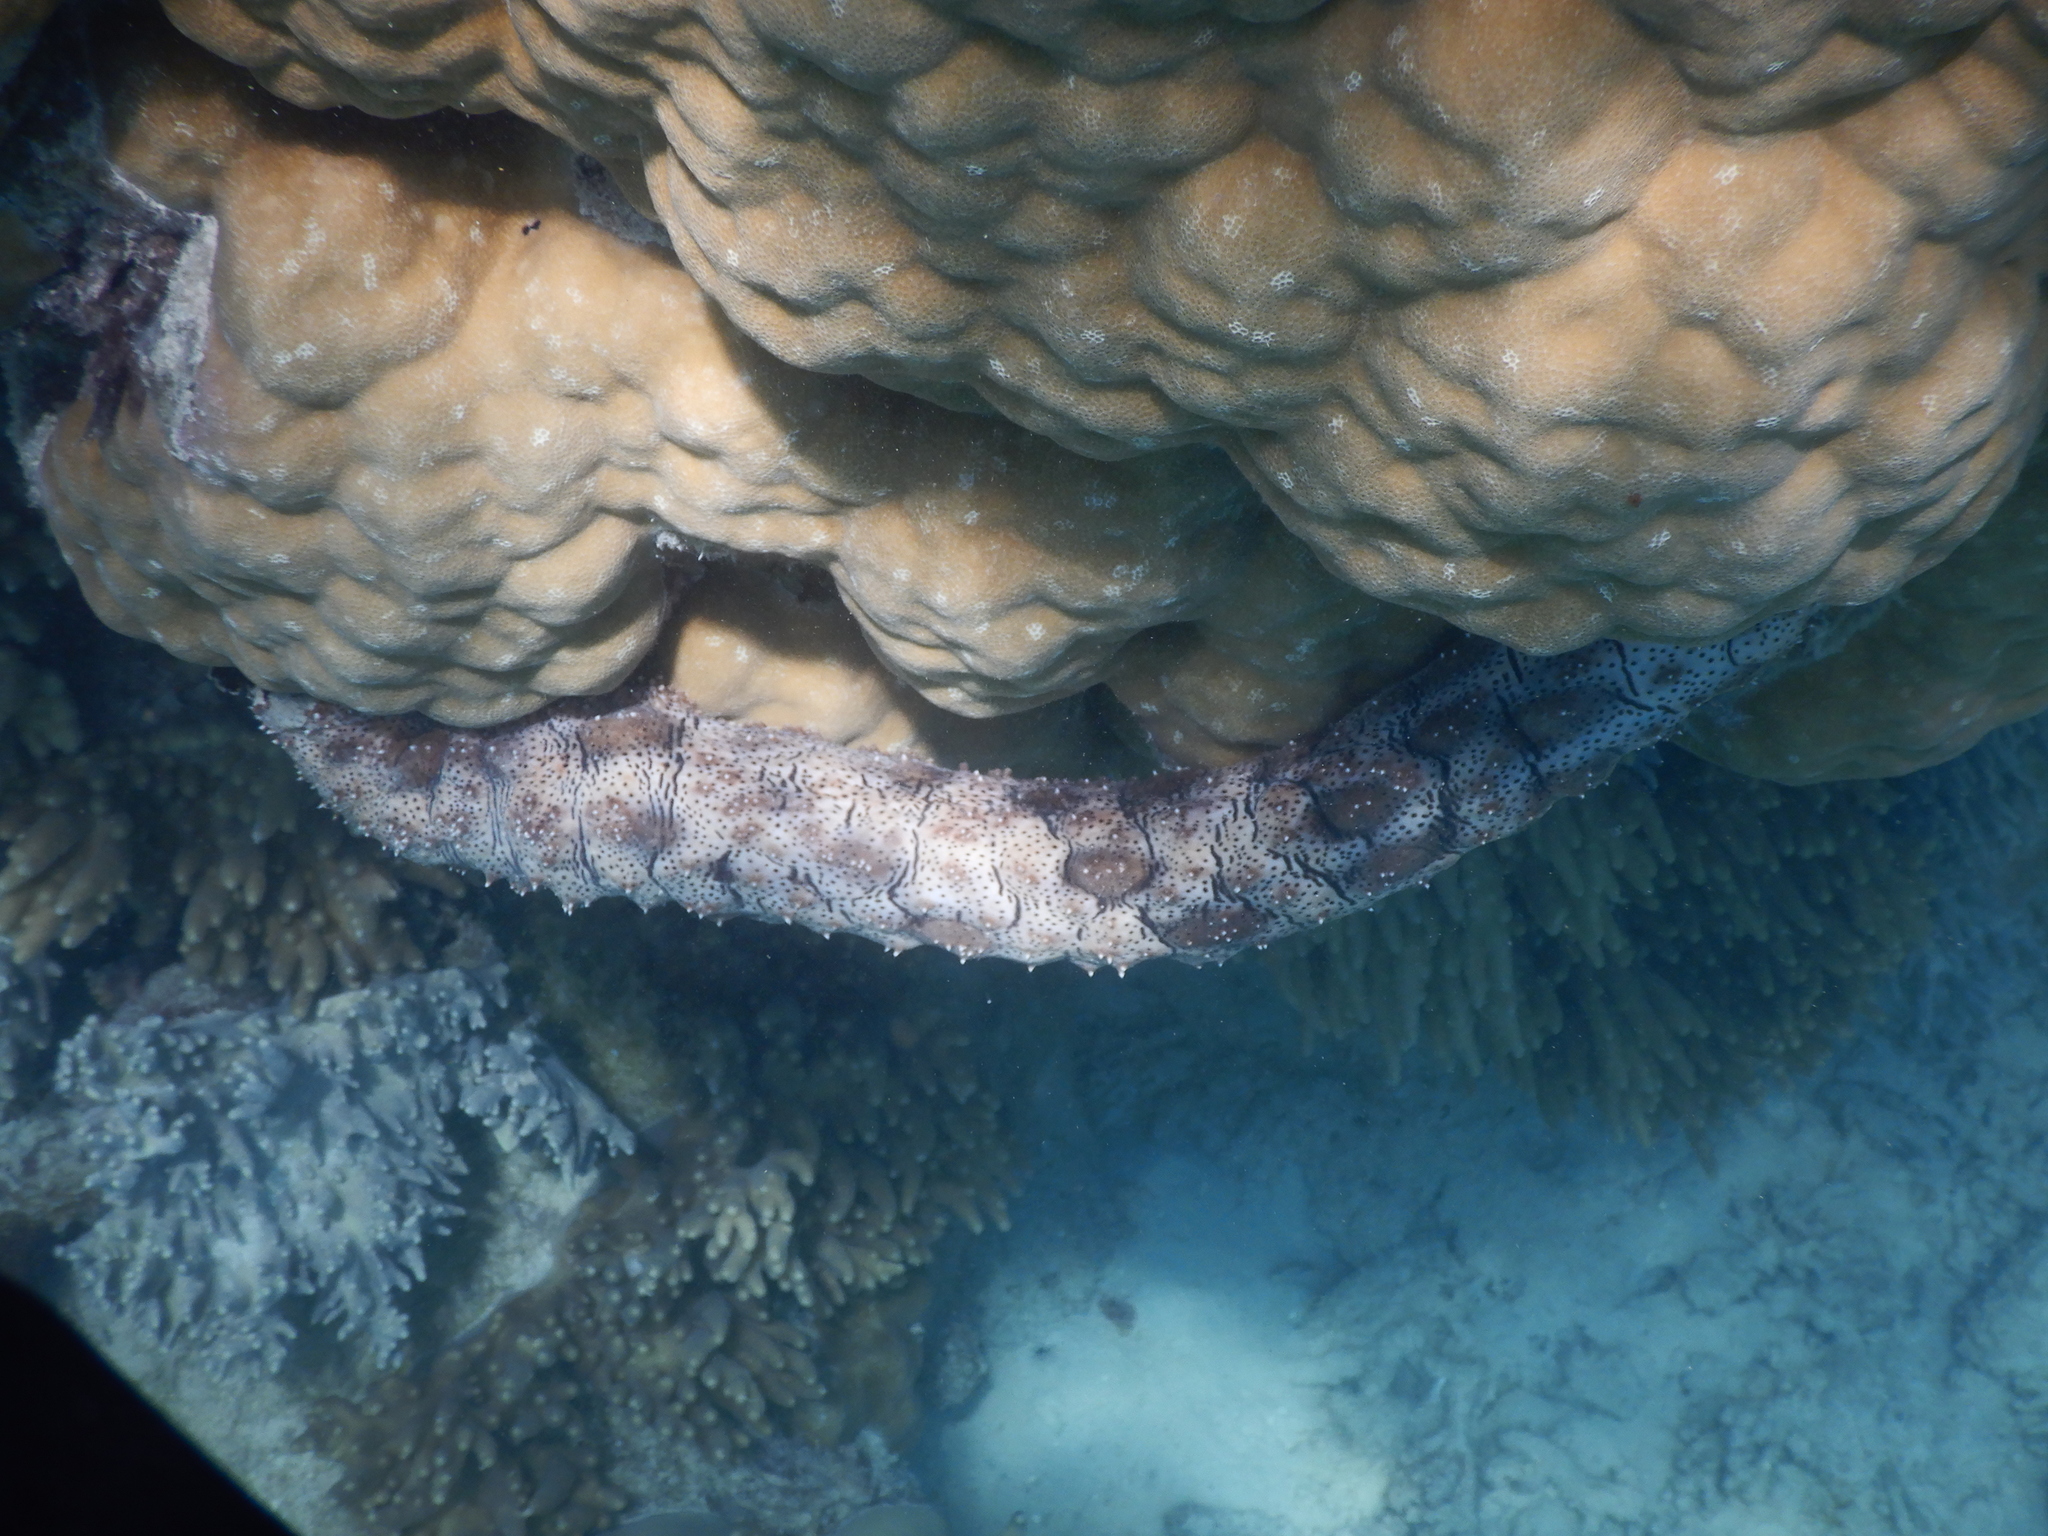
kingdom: Animalia
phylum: Echinodermata
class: Holothuroidea
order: Holothuriida
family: Holothuriidae
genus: Pearsonothuria
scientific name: Pearsonothuria graeffei
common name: Blackspotted sea cucumber
